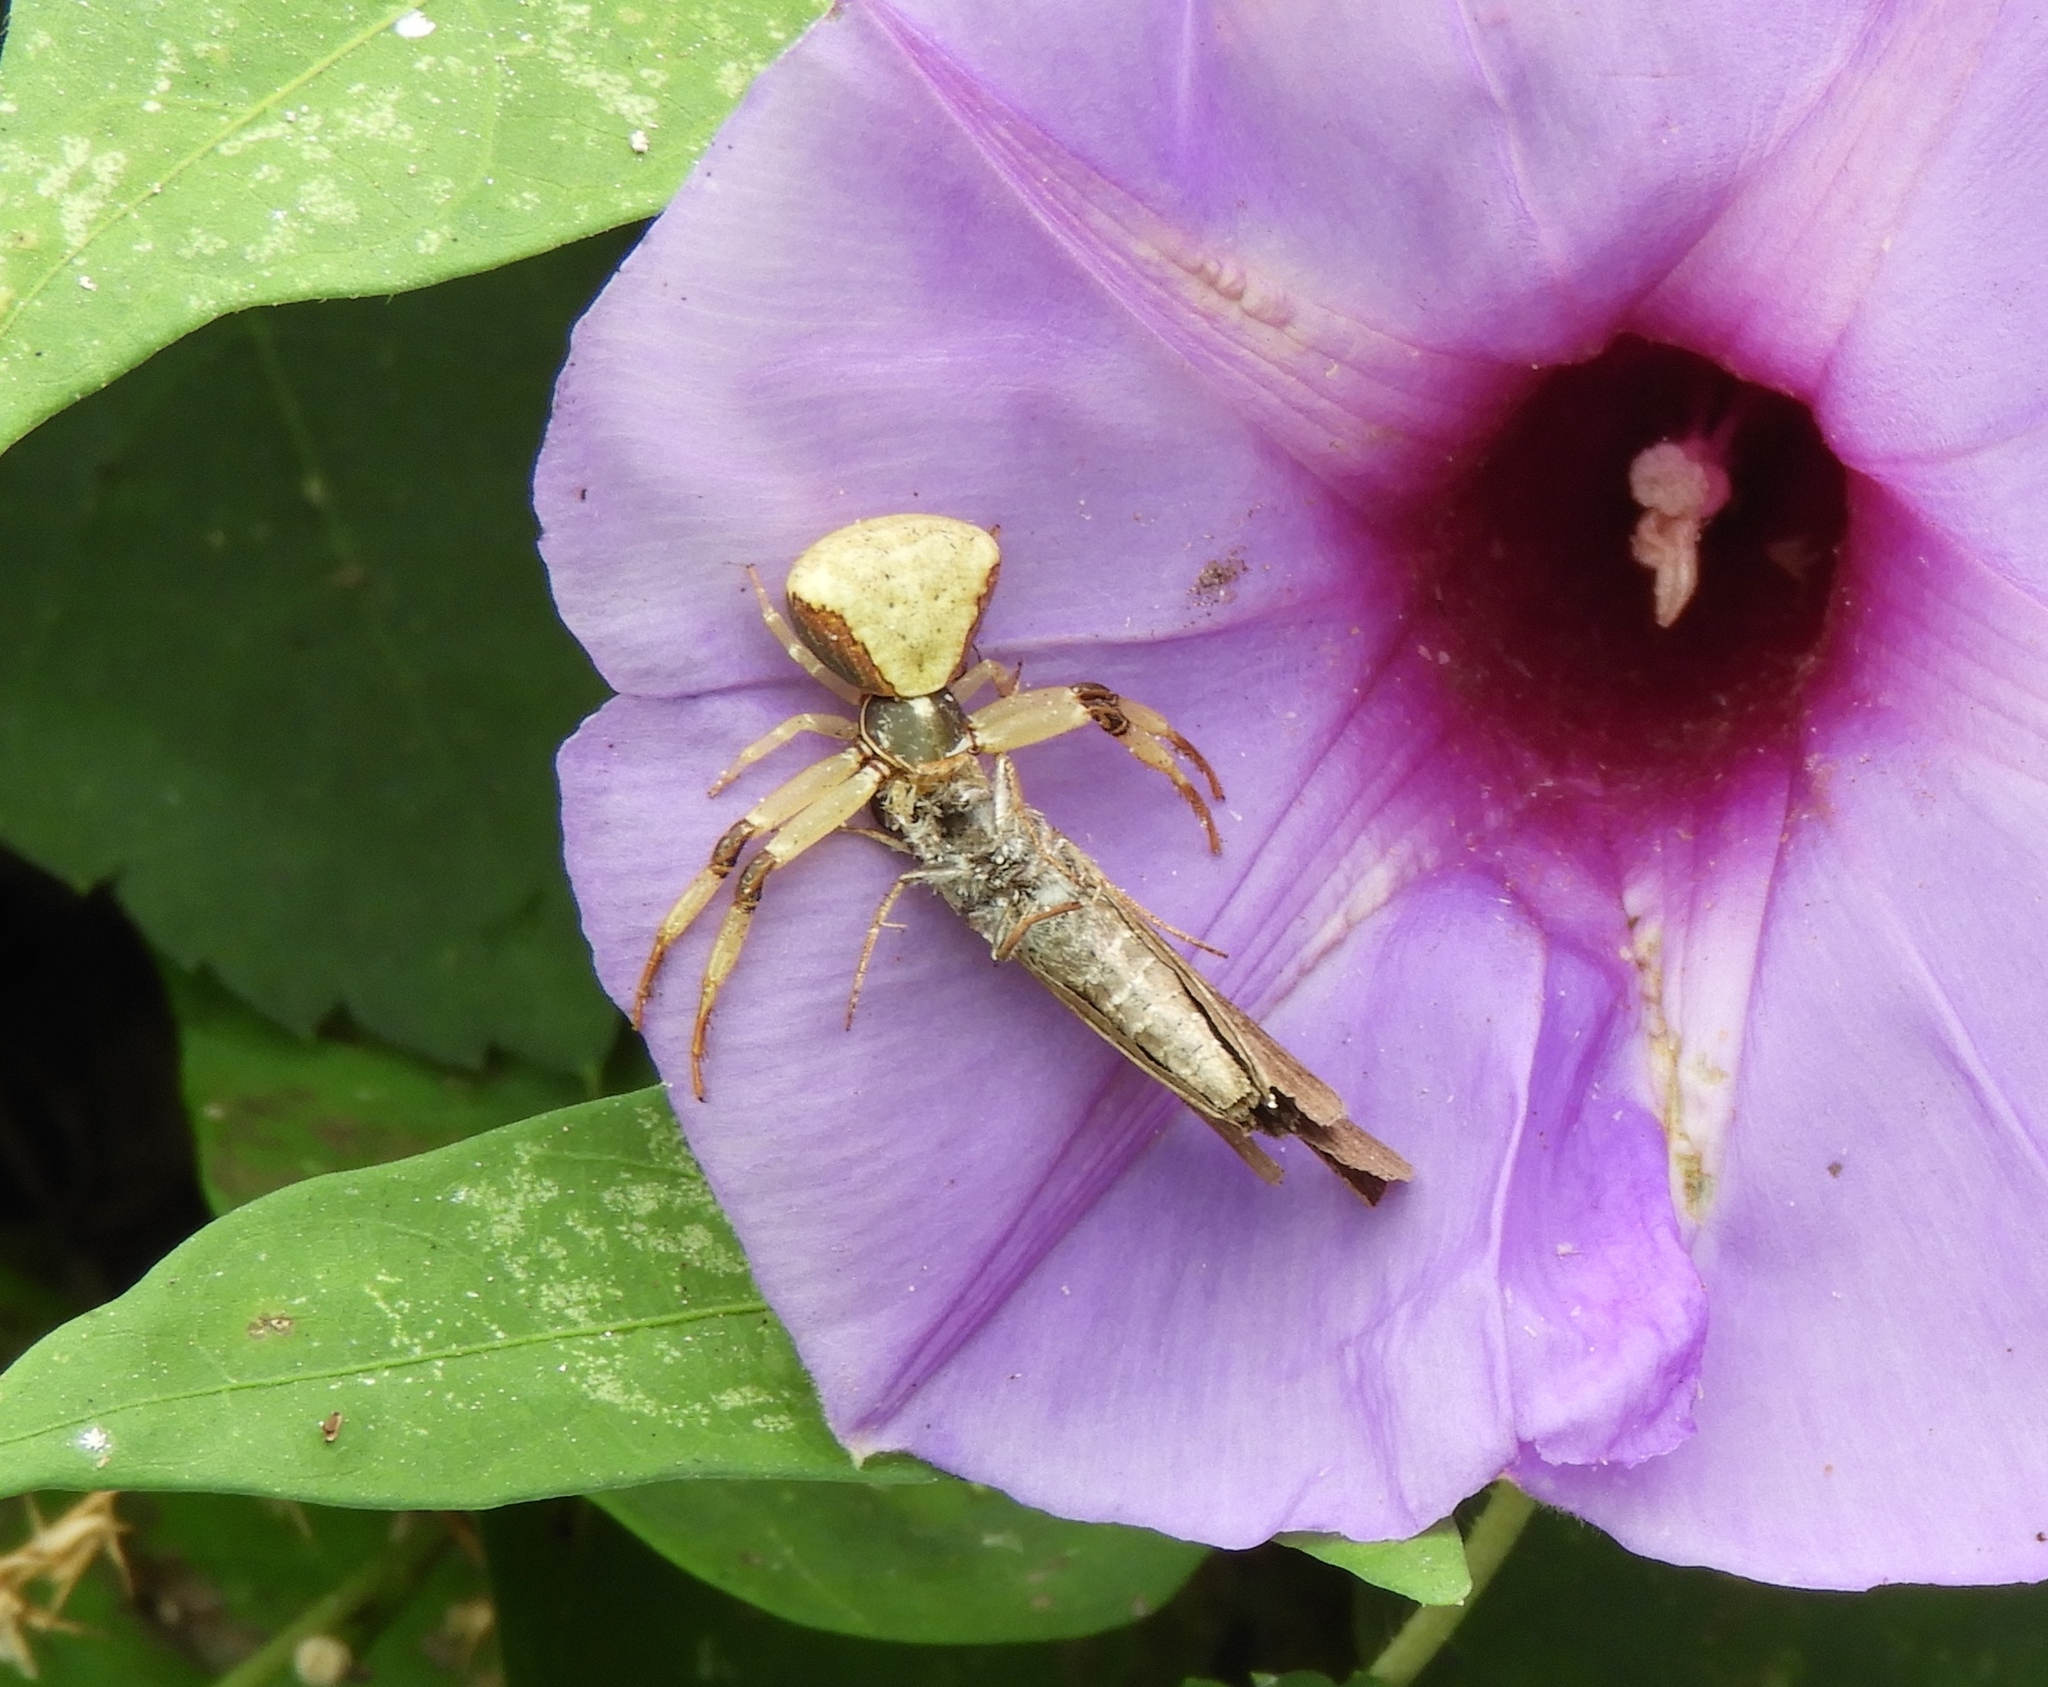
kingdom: Animalia
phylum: Arthropoda
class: Arachnida
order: Araneae
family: Thomisidae
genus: Misumenoides
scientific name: Misumenoides
